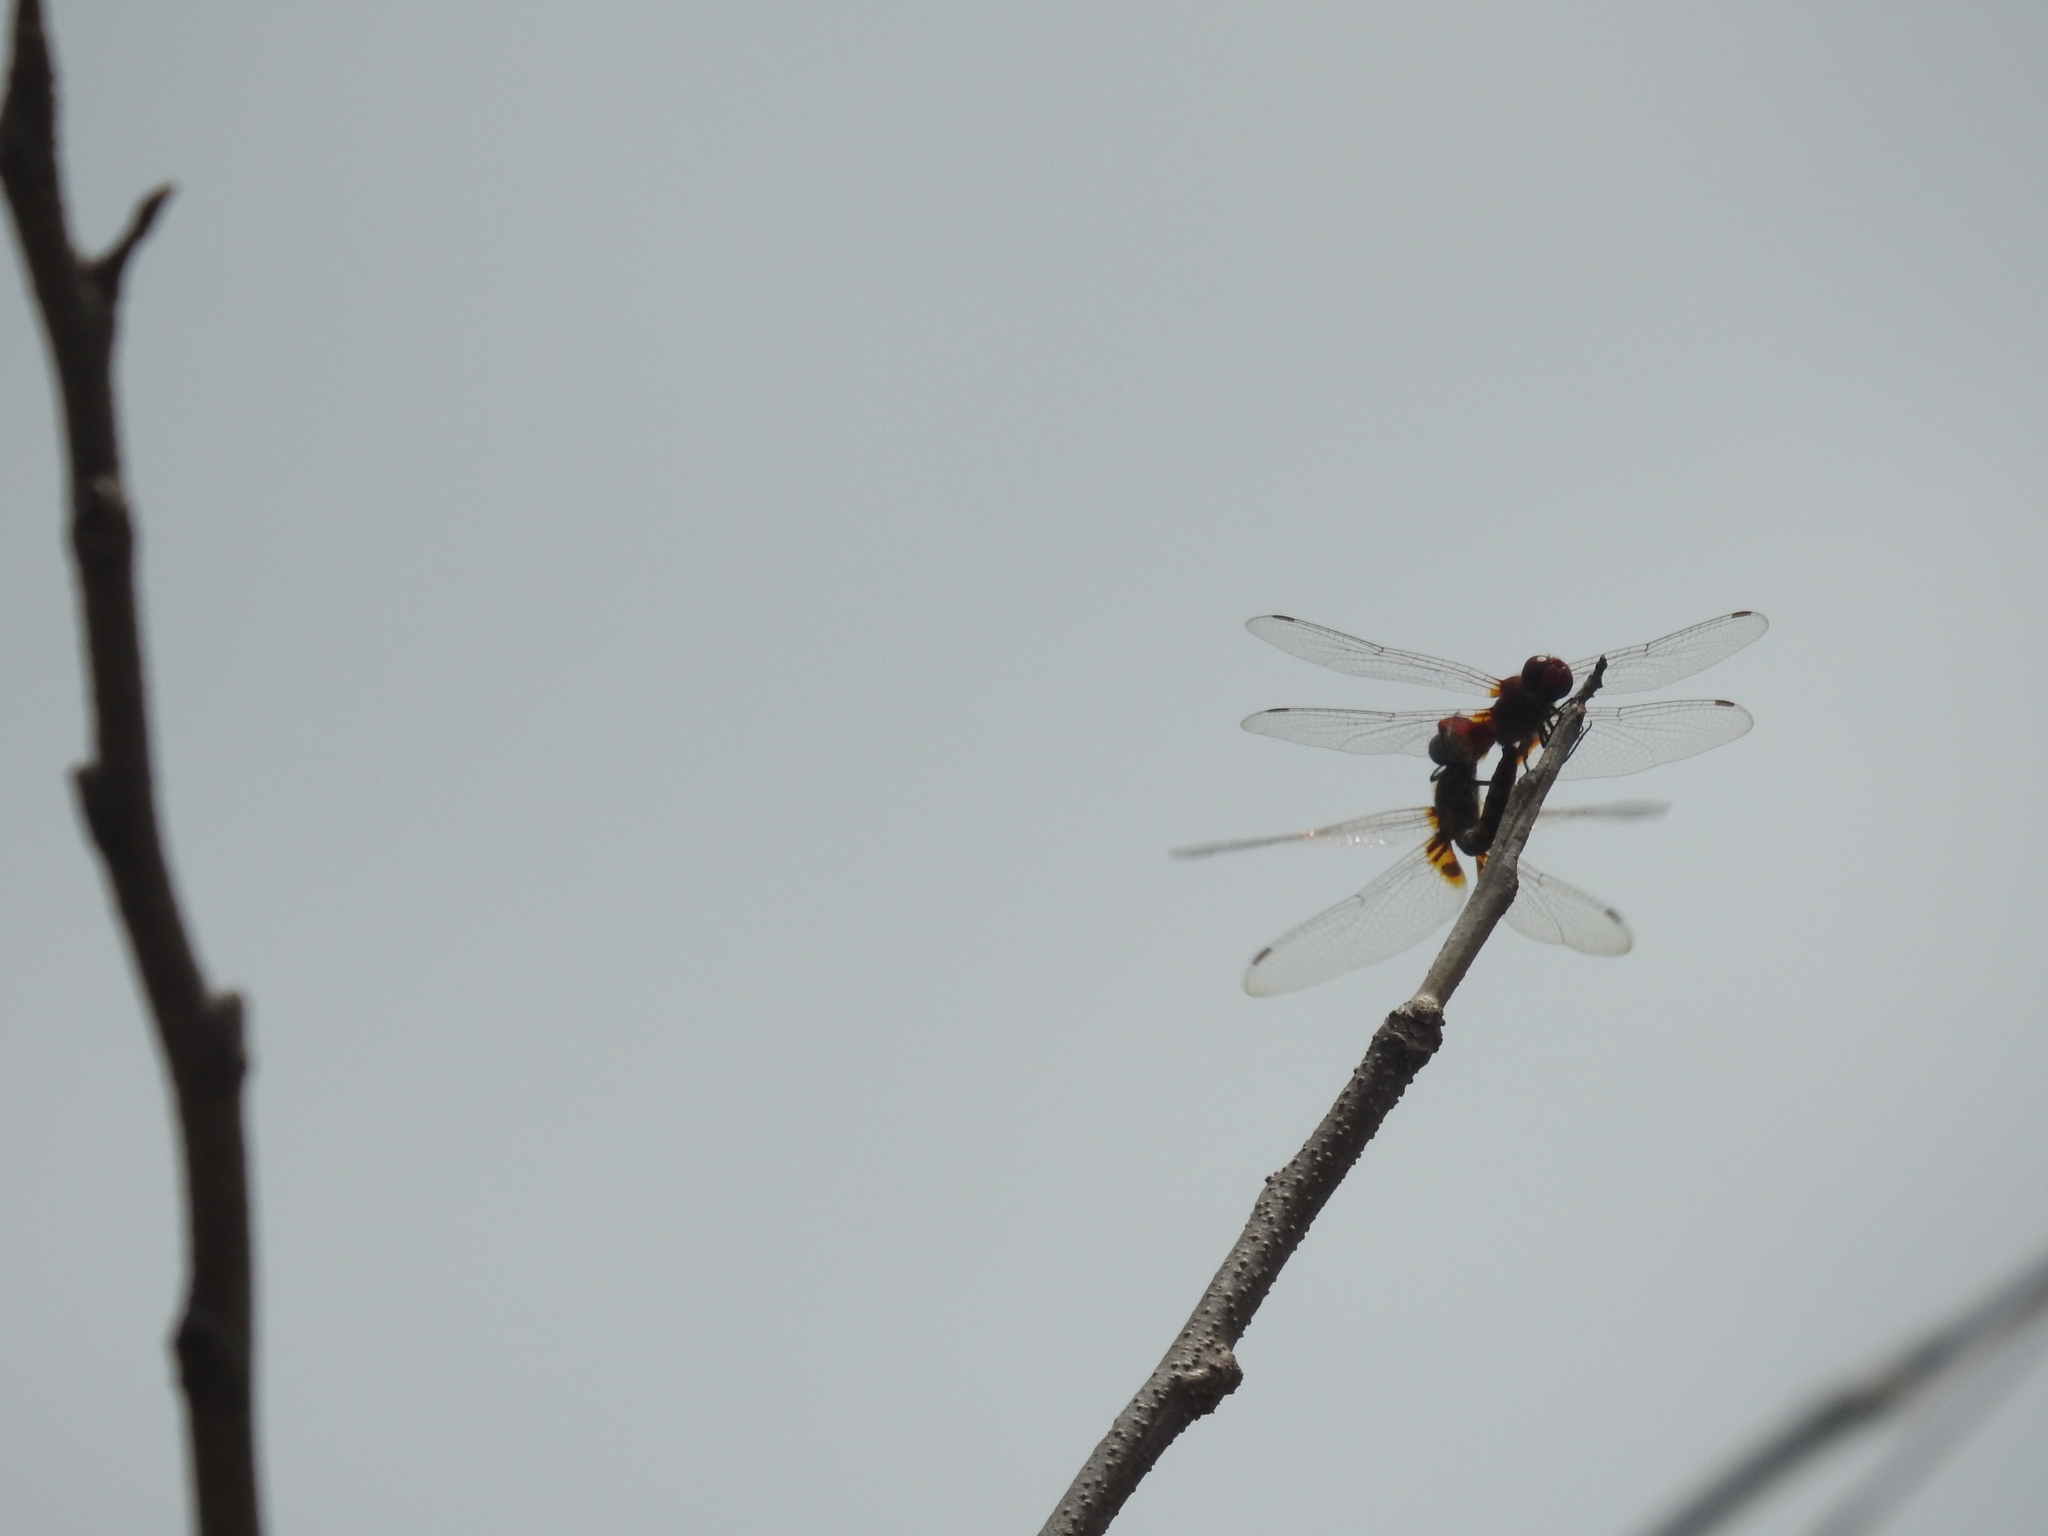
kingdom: Animalia
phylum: Arthropoda
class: Insecta
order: Odonata
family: Libellulidae
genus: Tramea
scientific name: Tramea basilaris
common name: Keyhole glider
